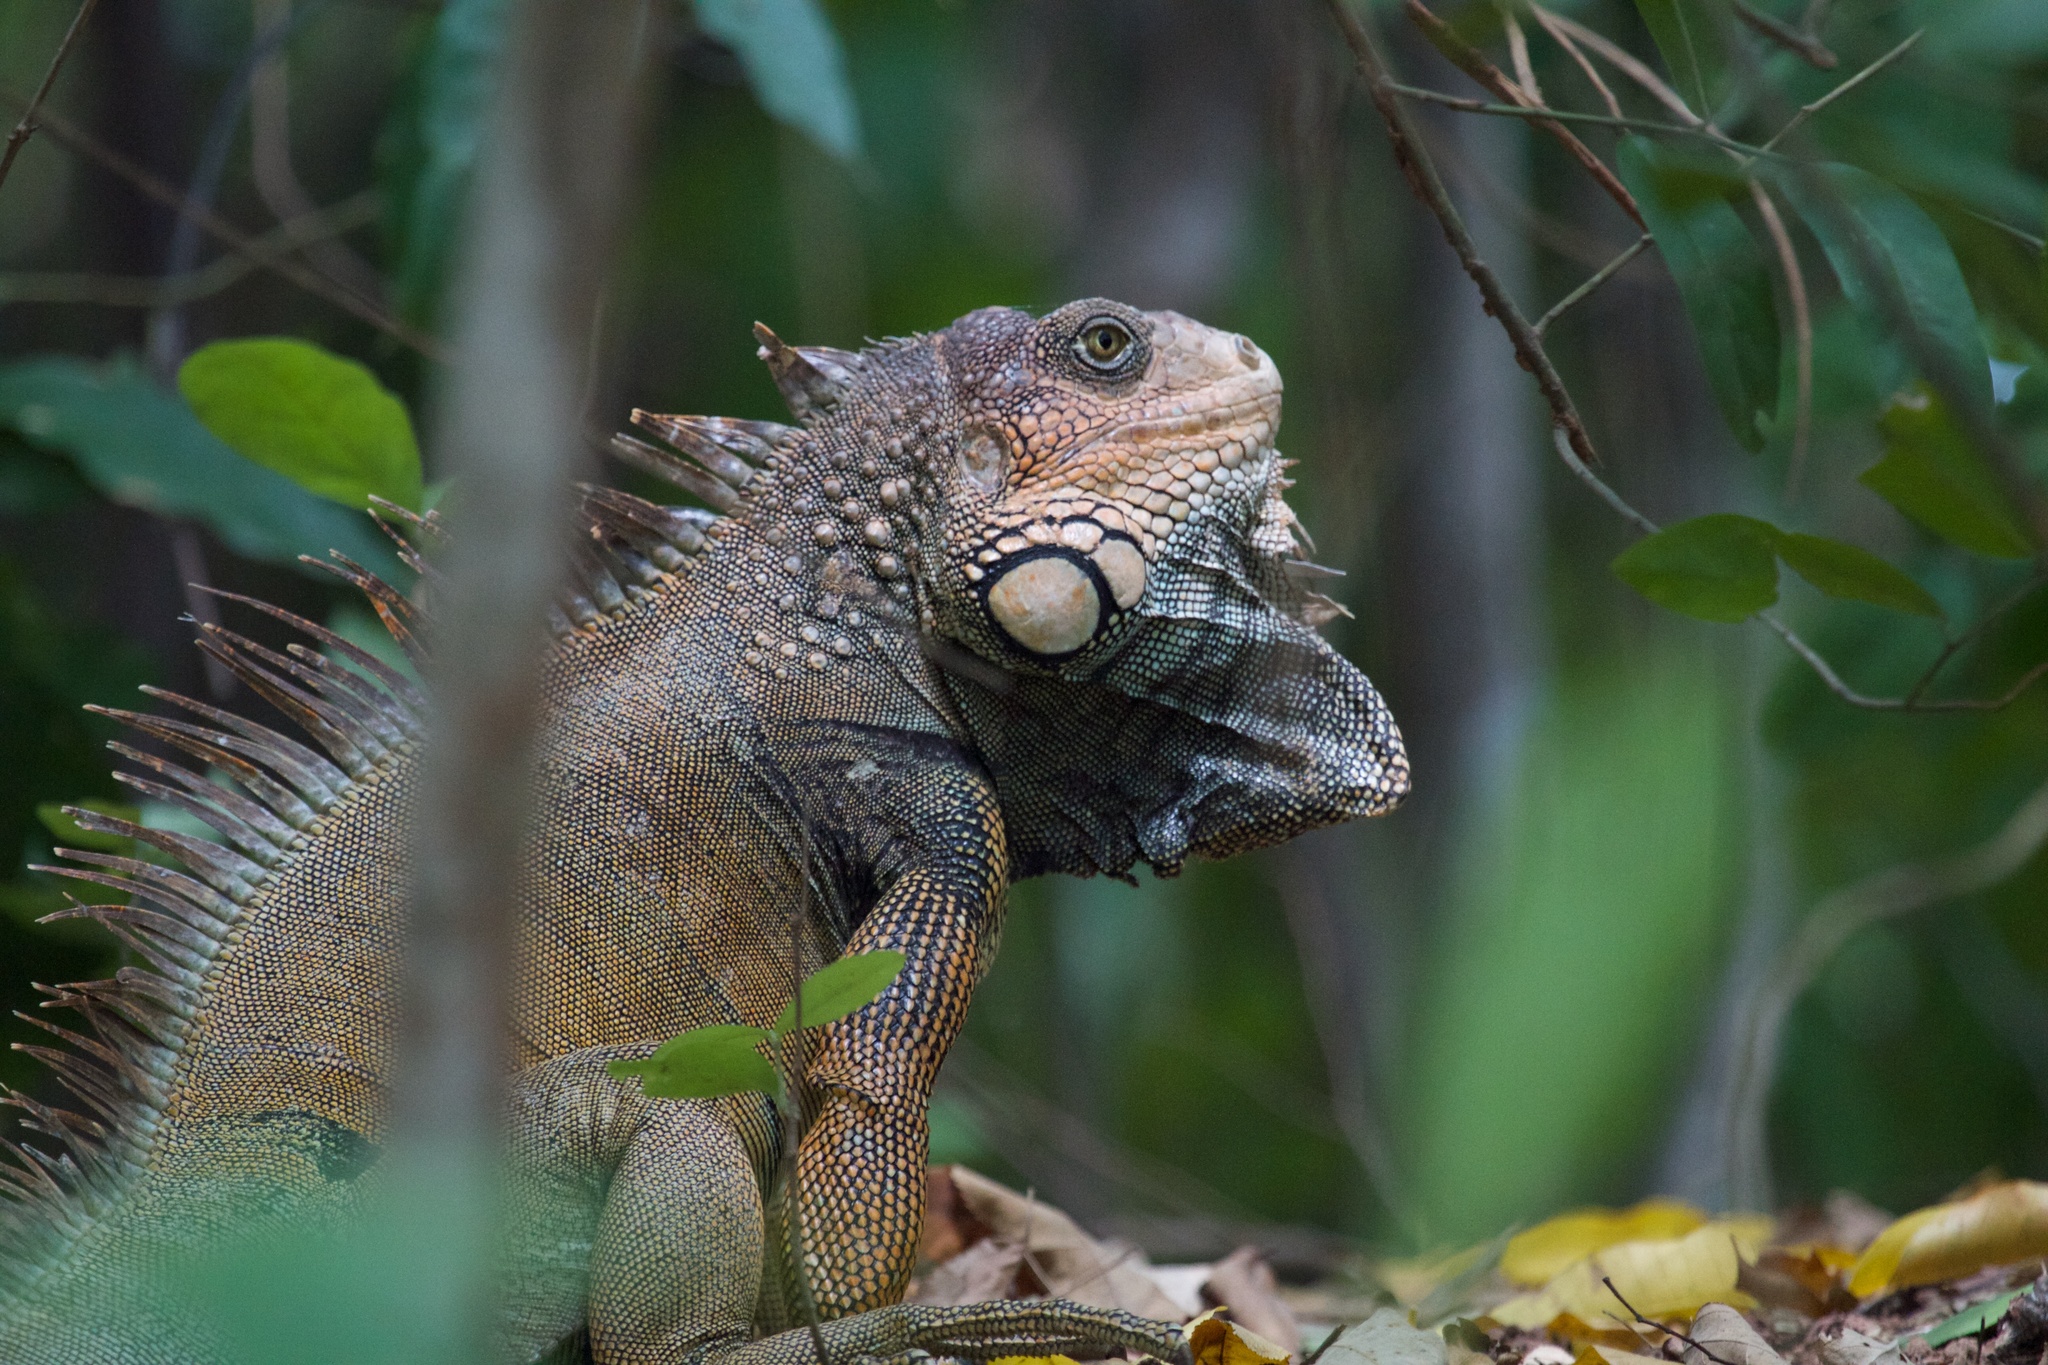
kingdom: Animalia
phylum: Chordata
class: Squamata
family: Iguanidae
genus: Iguana
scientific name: Iguana iguana
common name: Green iguana
